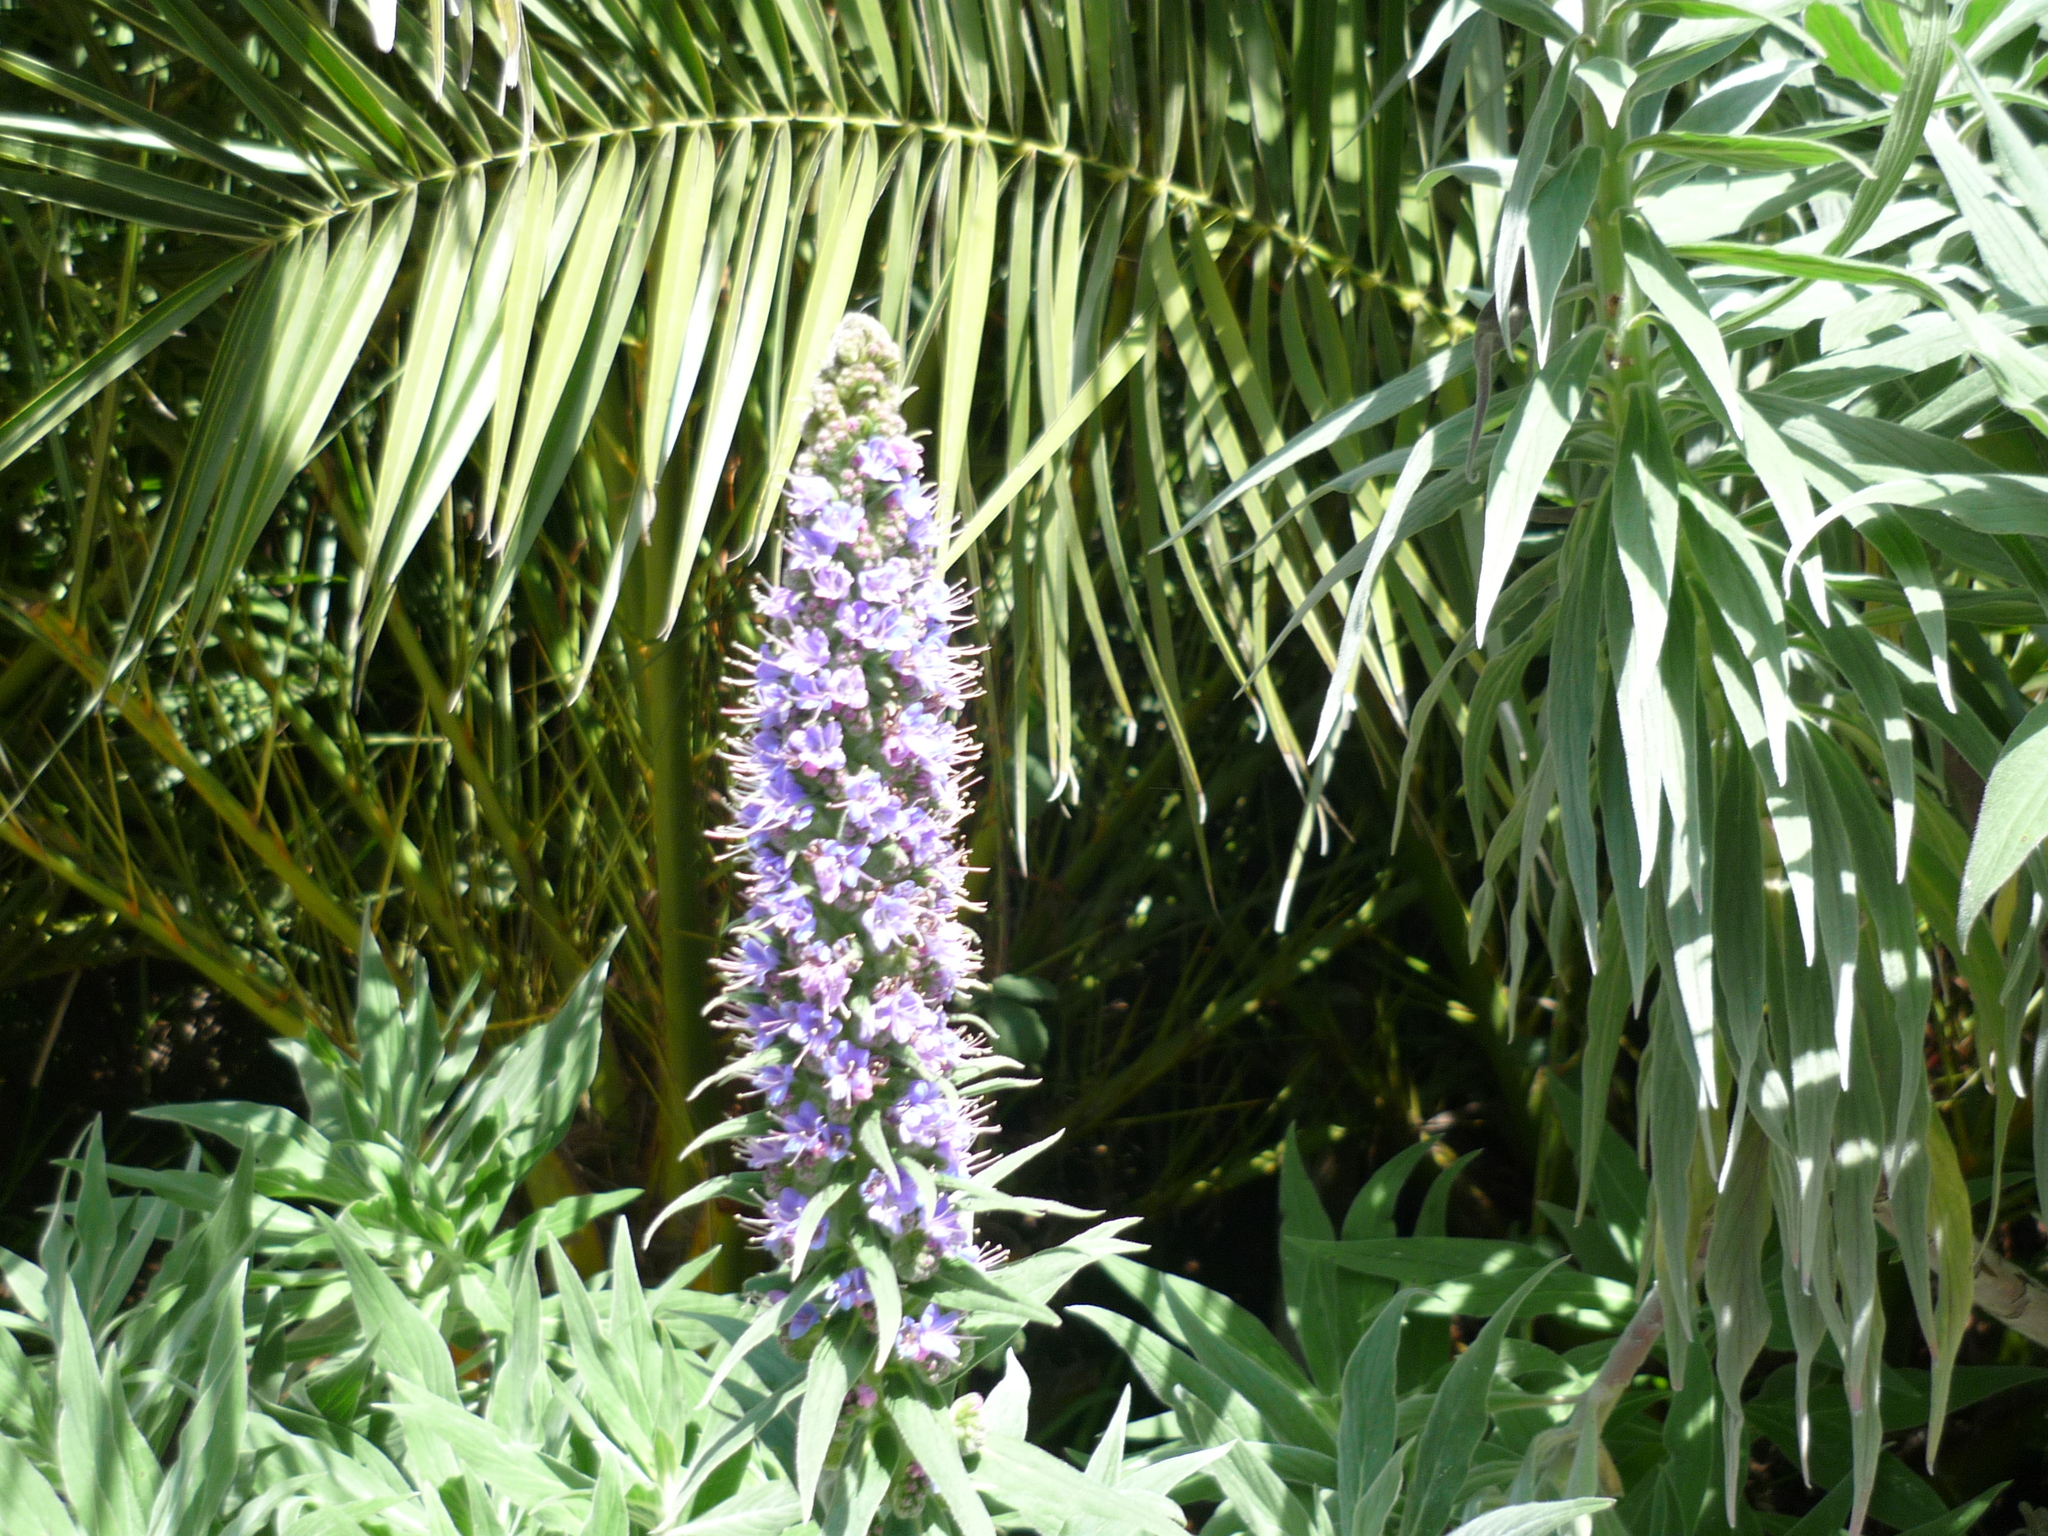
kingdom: Plantae
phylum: Tracheophyta
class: Magnoliopsida
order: Boraginales
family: Boraginaceae
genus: Echium
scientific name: Echium candicans
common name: Pride of madeira
